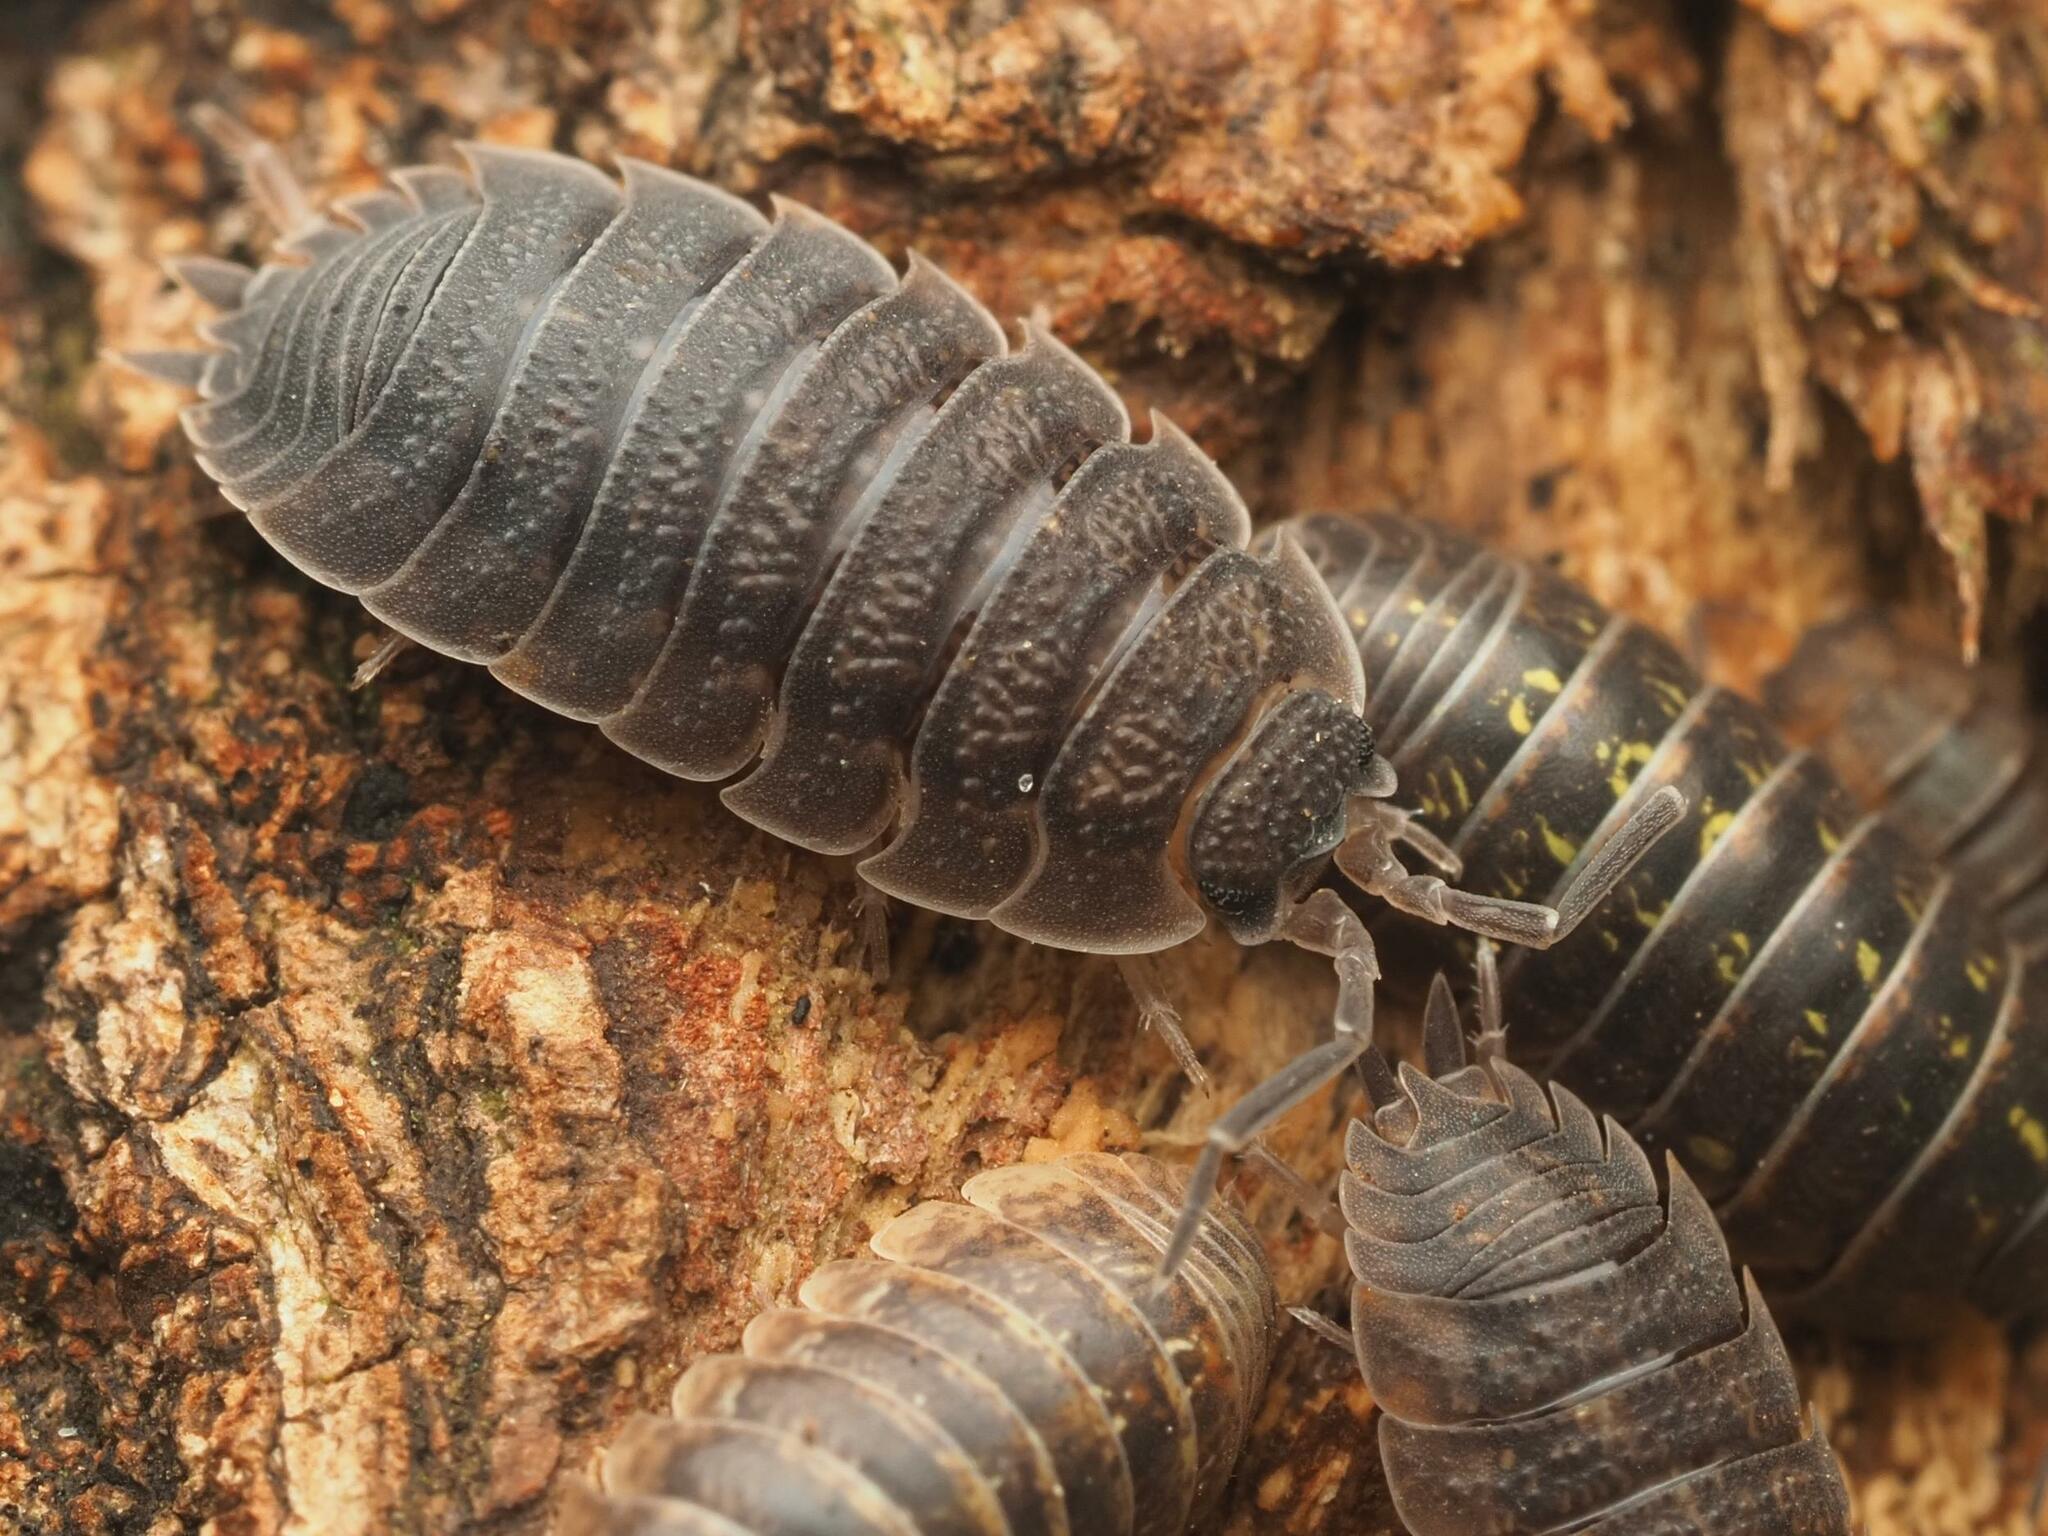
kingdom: Animalia
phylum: Arthropoda
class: Malacostraca
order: Isopoda
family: Porcellionidae
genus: Porcellio
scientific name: Porcellio scaber
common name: Common rough woodlouse
